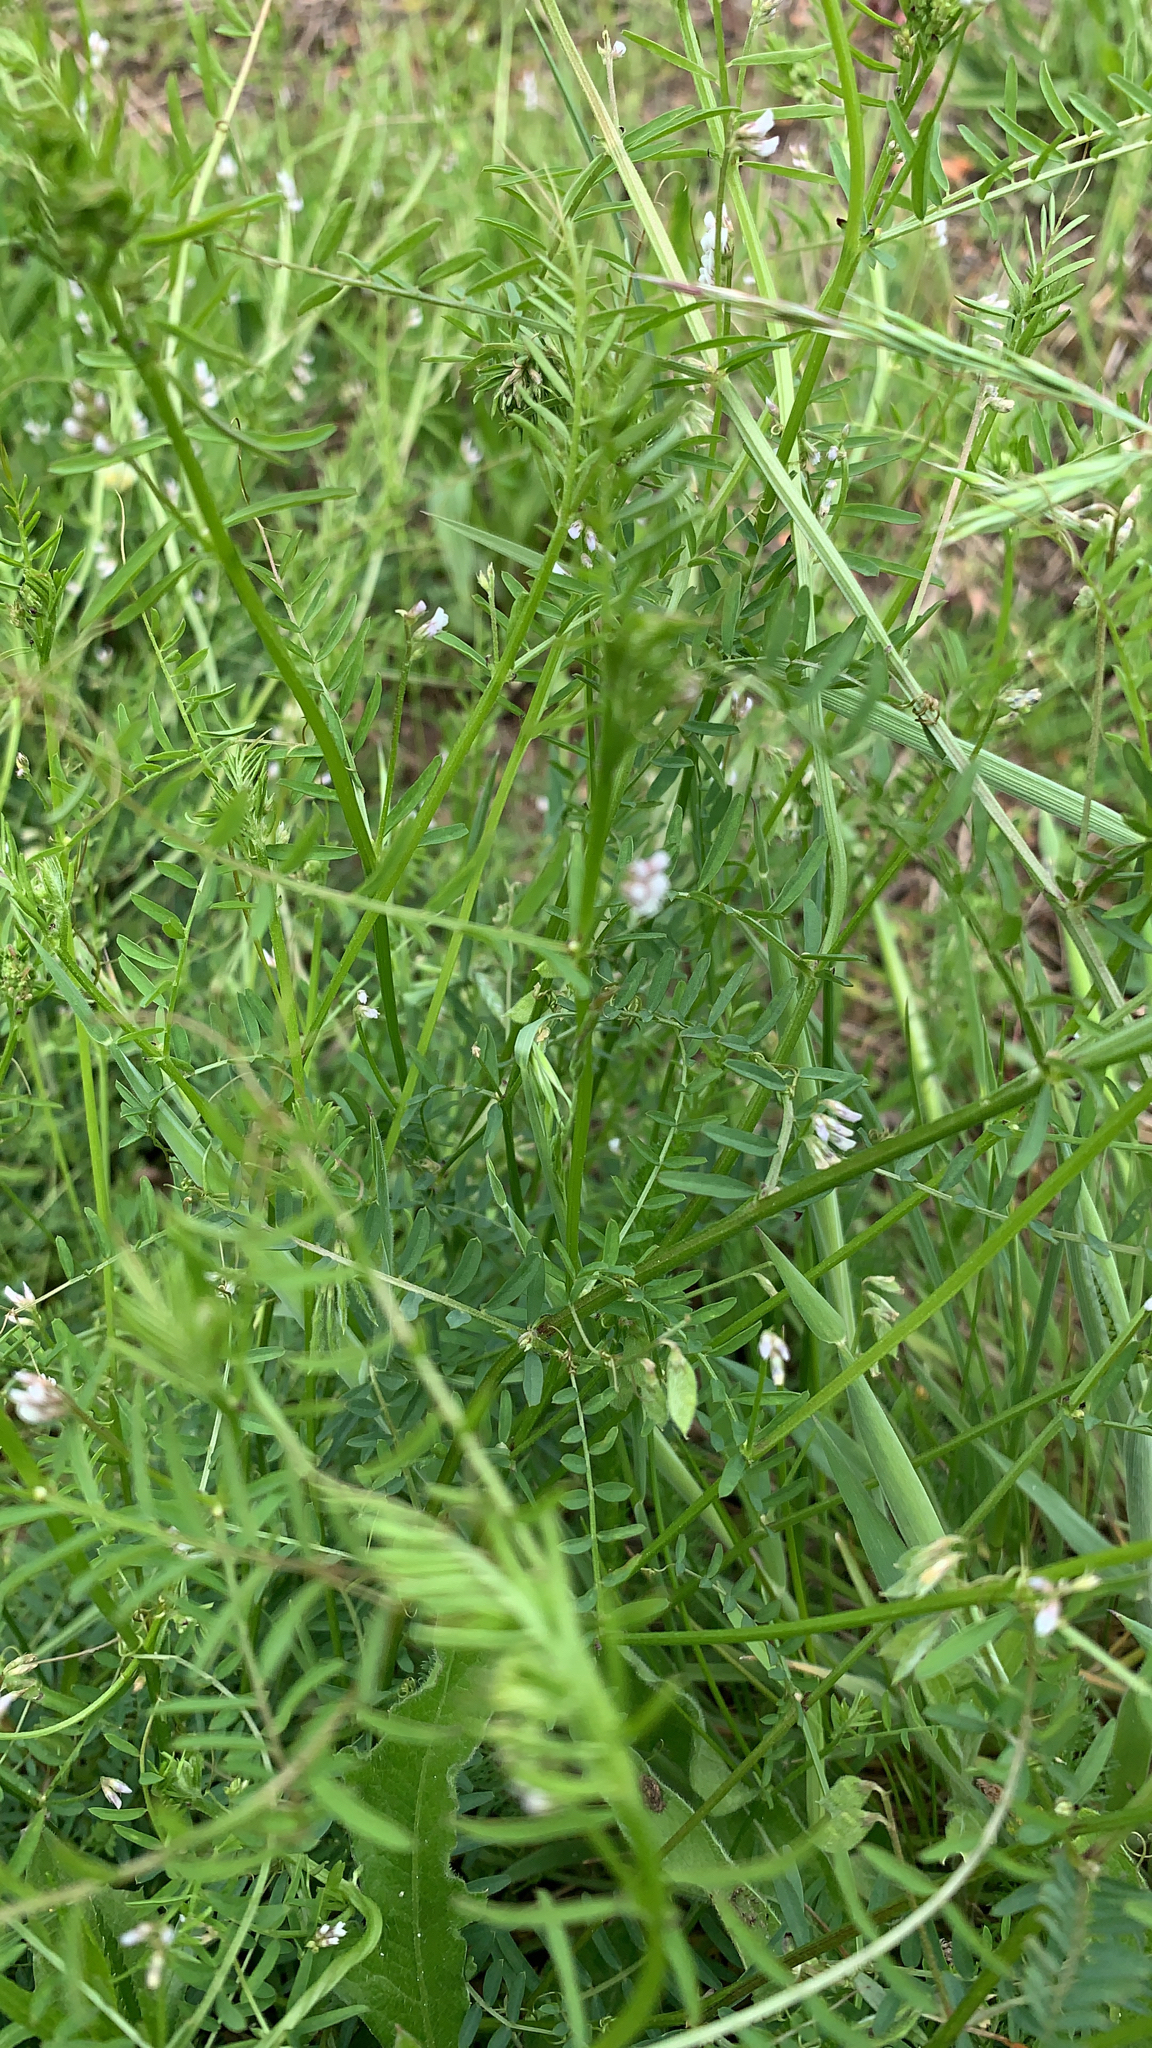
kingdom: Plantae
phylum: Tracheophyta
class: Magnoliopsida
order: Fabales
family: Fabaceae
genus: Vicia
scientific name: Vicia hirsuta
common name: Tiny vetch
